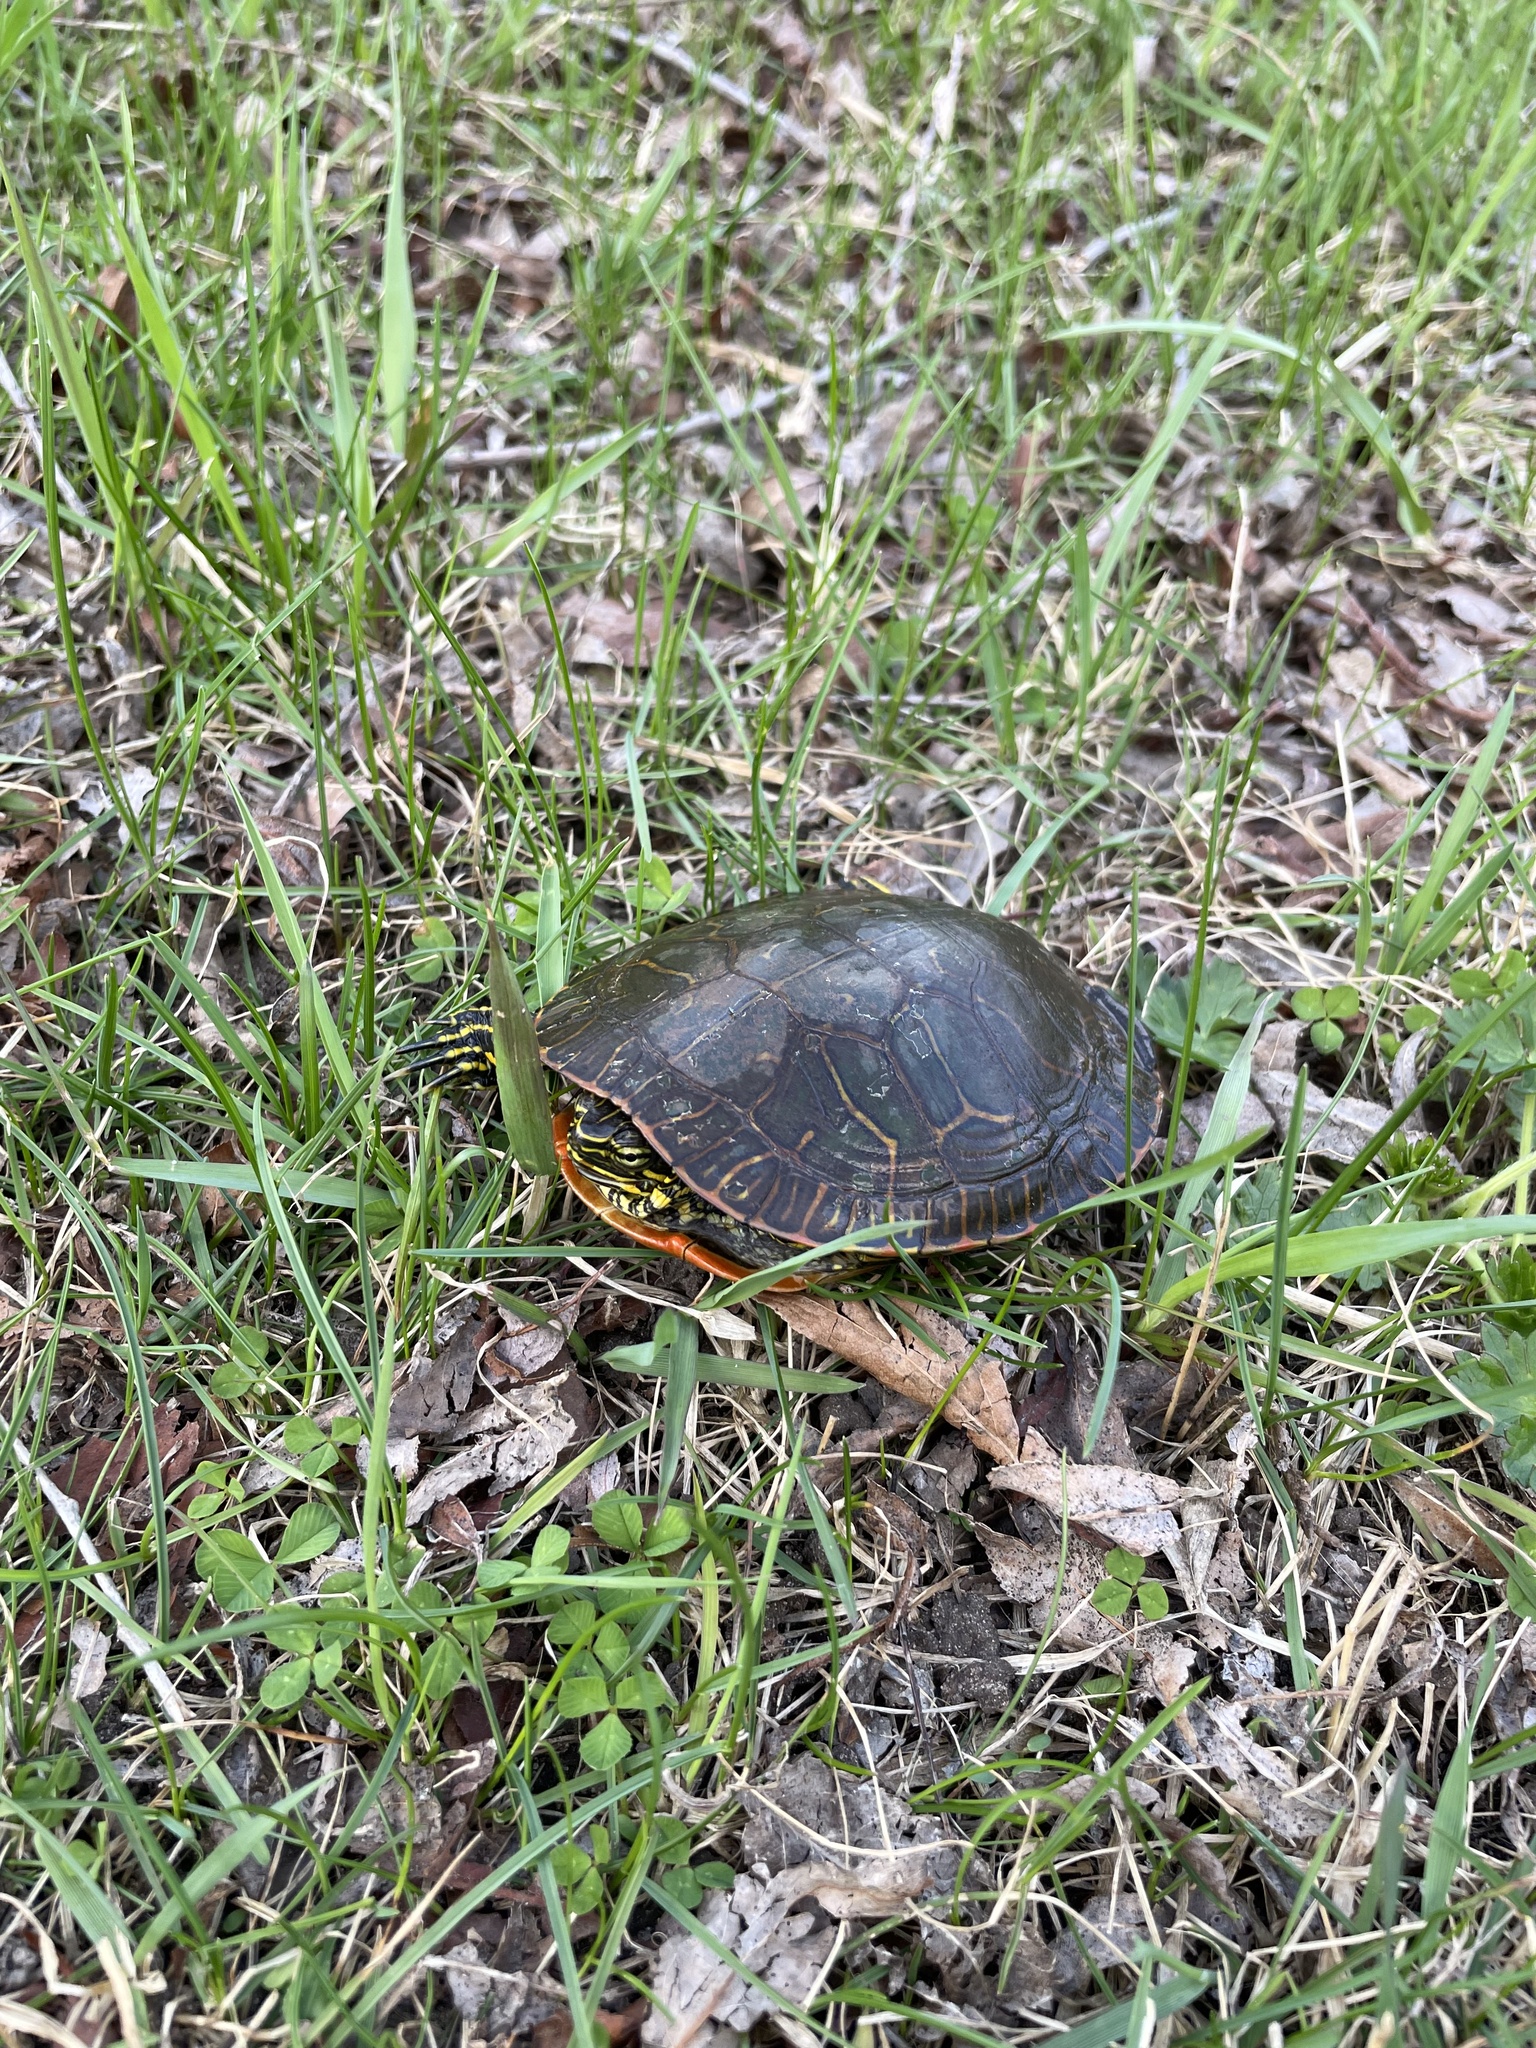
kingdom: Animalia
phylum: Chordata
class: Testudines
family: Emydidae
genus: Chrysemys
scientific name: Chrysemys picta
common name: Painted turtle
